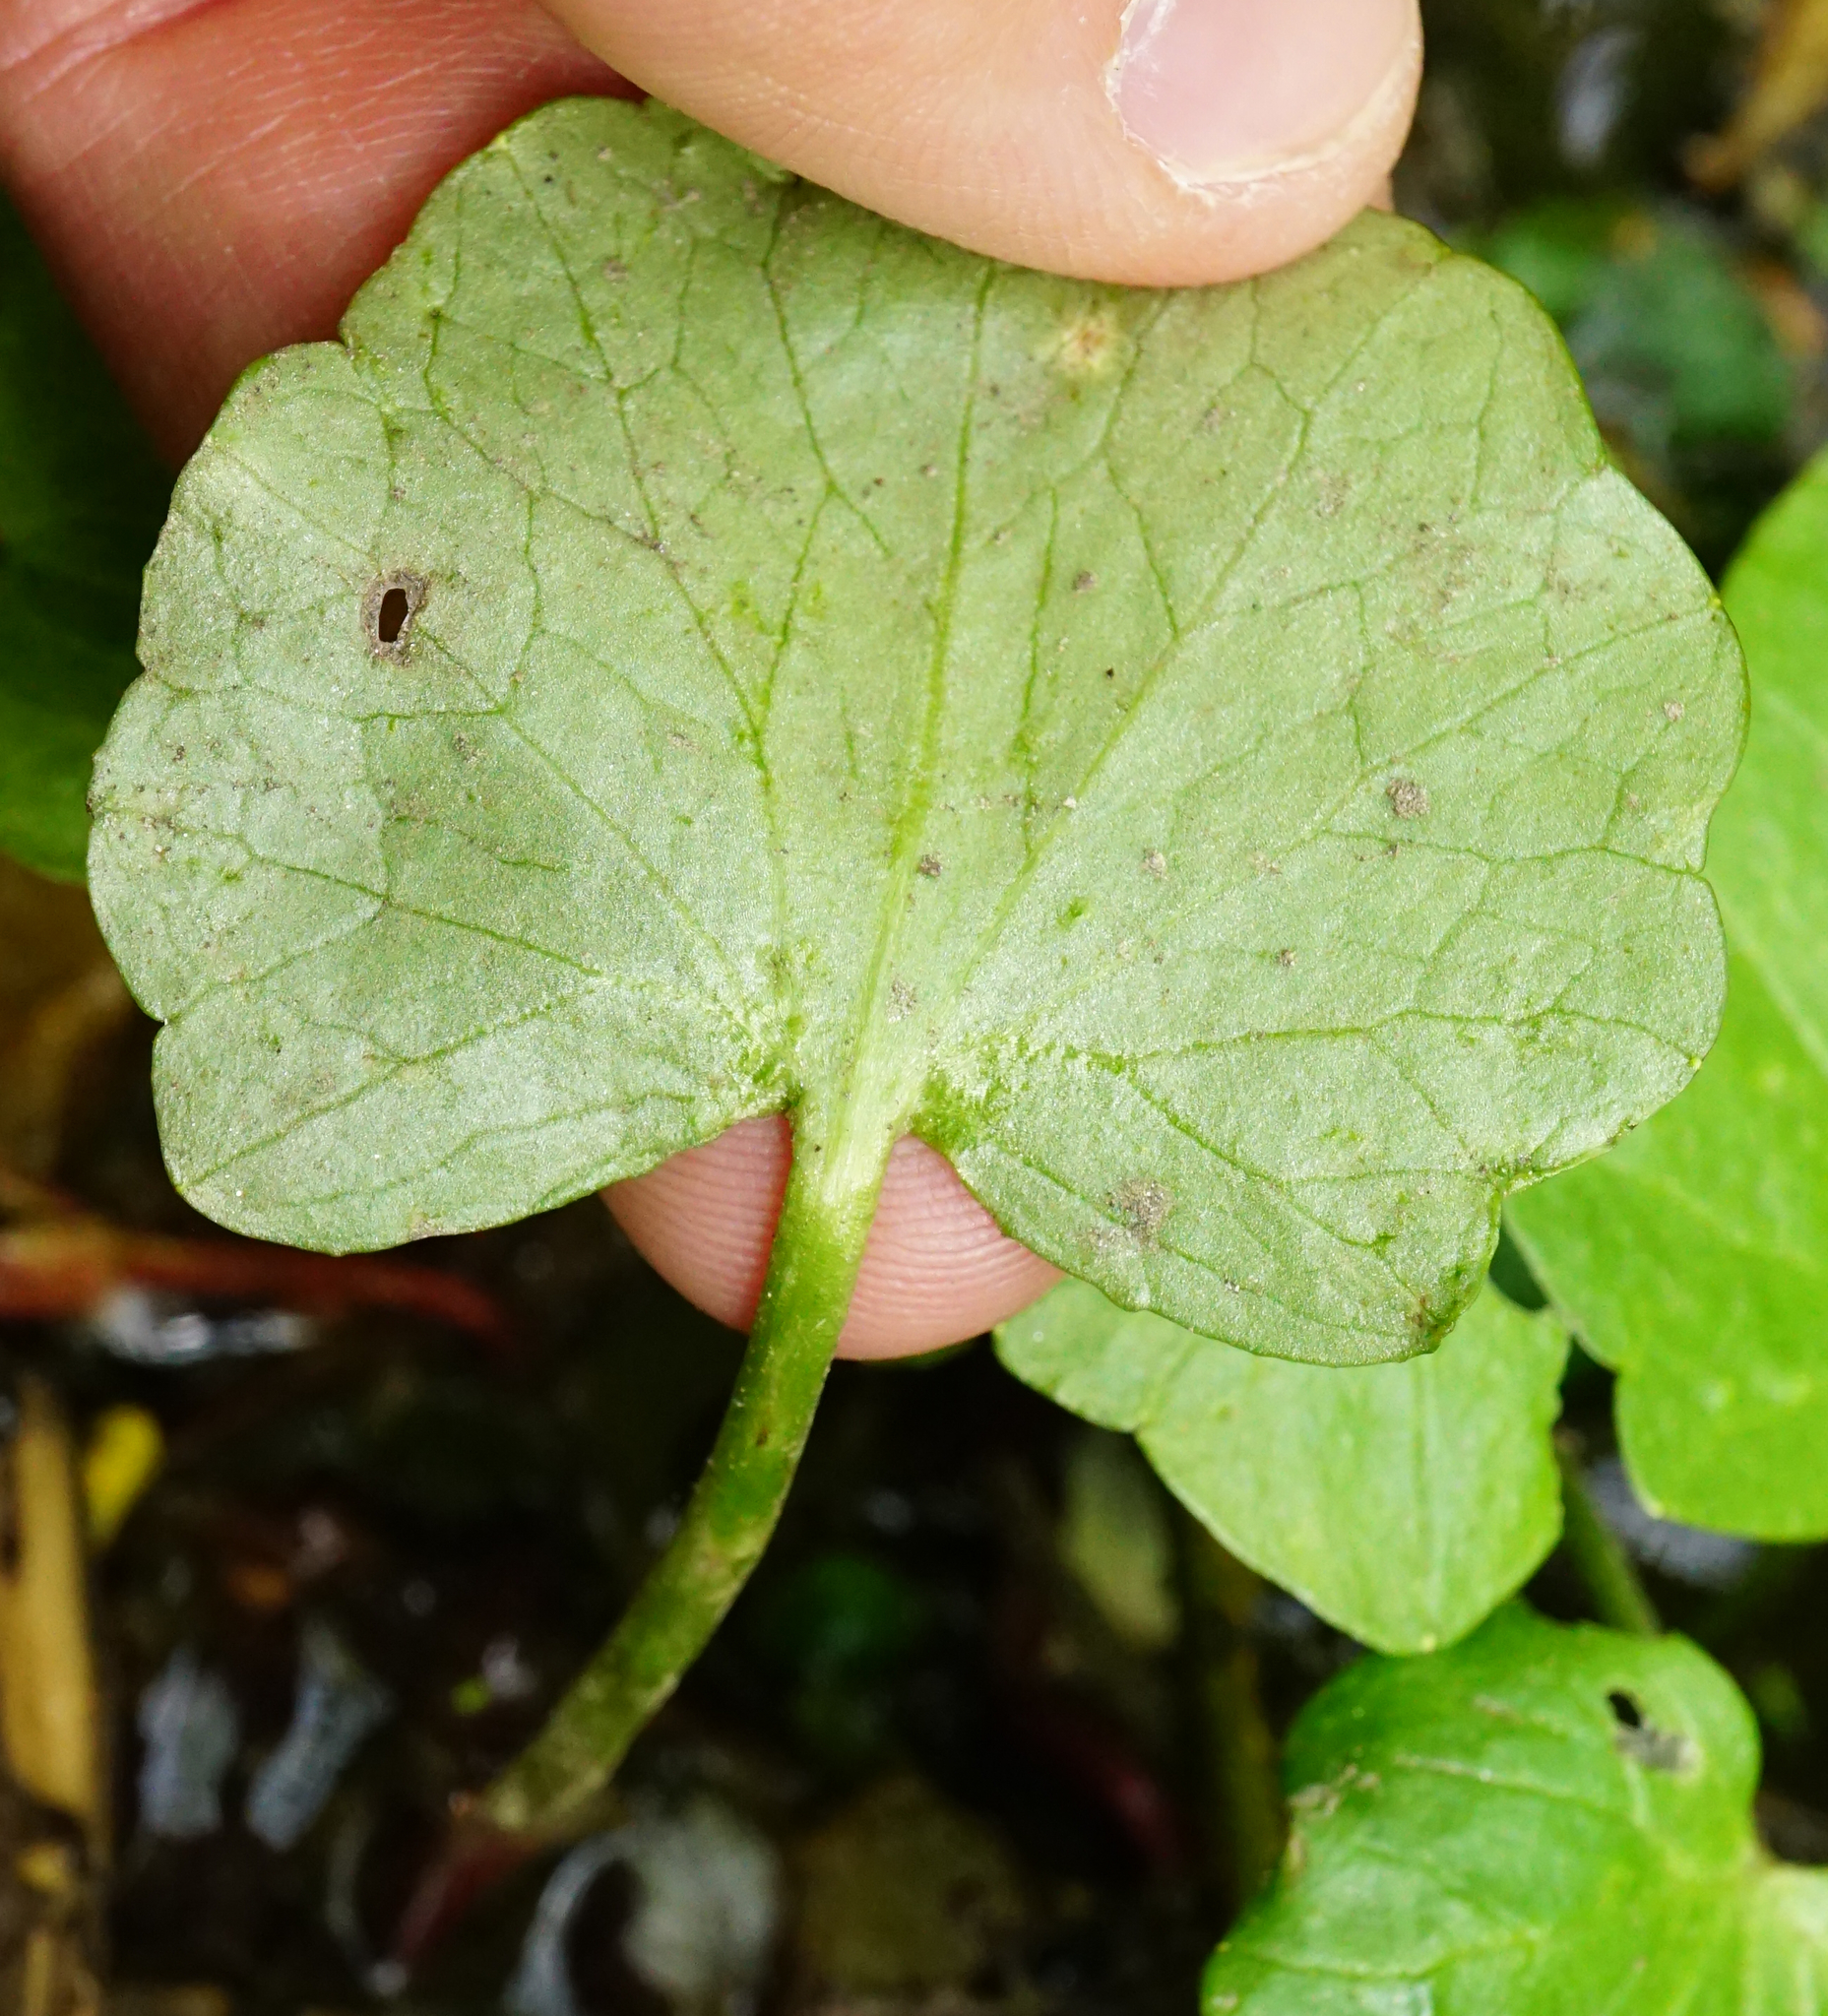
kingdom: Plantae
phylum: Tracheophyta
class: Magnoliopsida
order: Ranunculales
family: Ranunculaceae
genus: Ficaria
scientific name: Ficaria verna
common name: Lesser celandine
